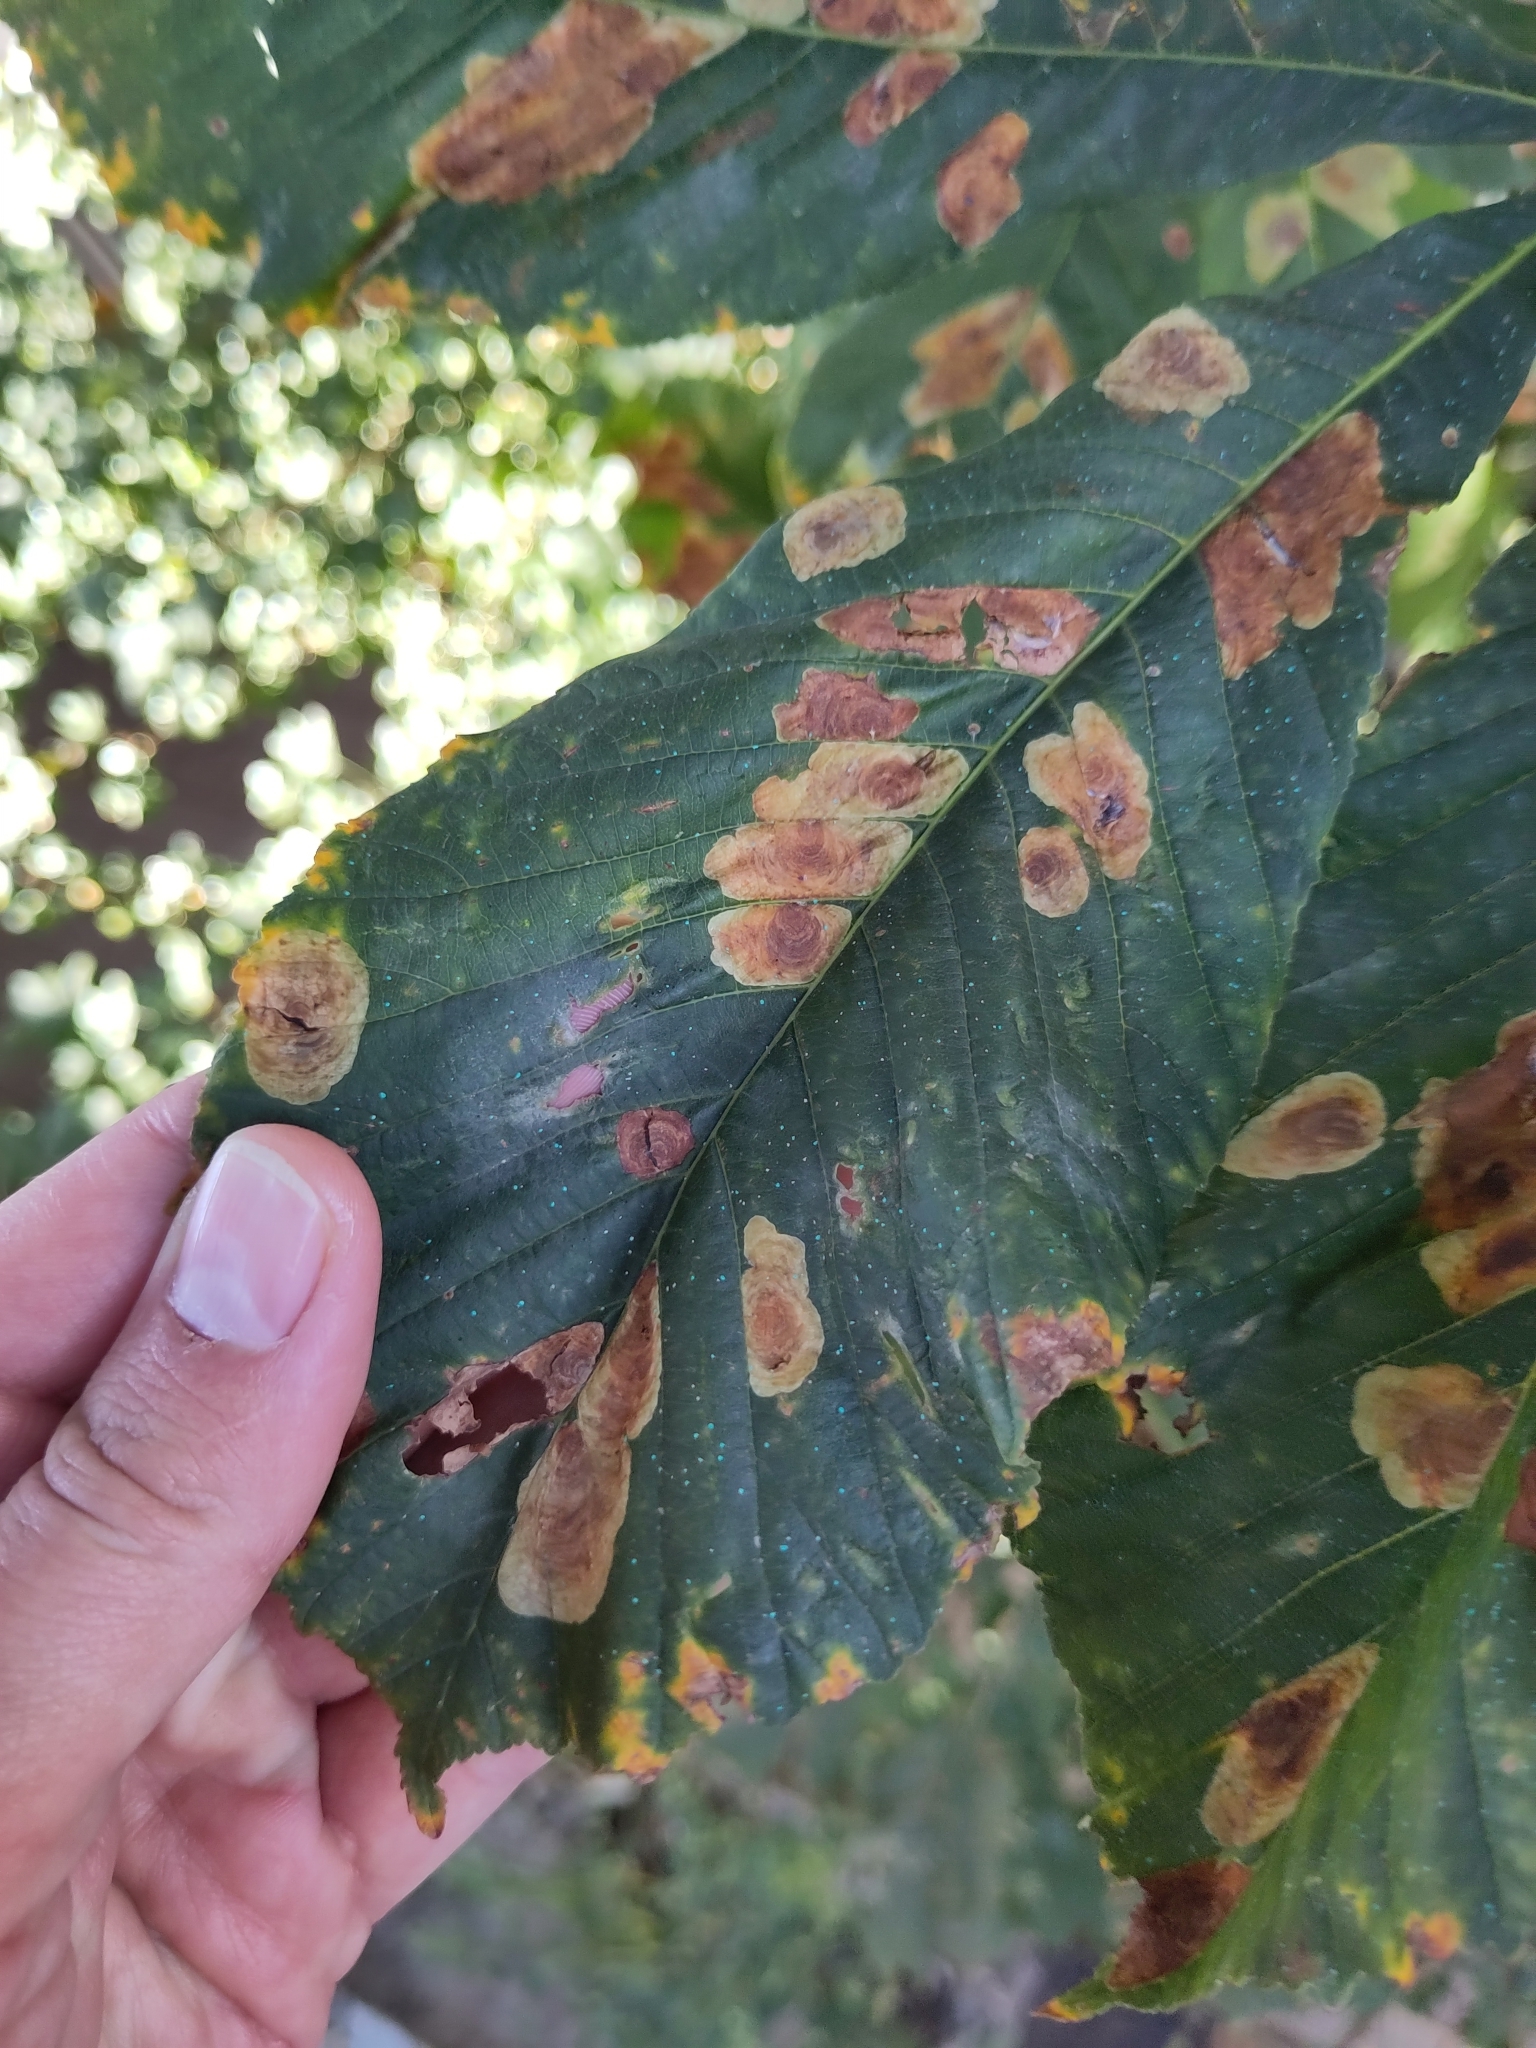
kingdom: Animalia
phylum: Arthropoda
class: Insecta
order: Lepidoptera
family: Gracillariidae
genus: Cameraria
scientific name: Cameraria ohridella
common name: Horse-chestnut leaf-miner
